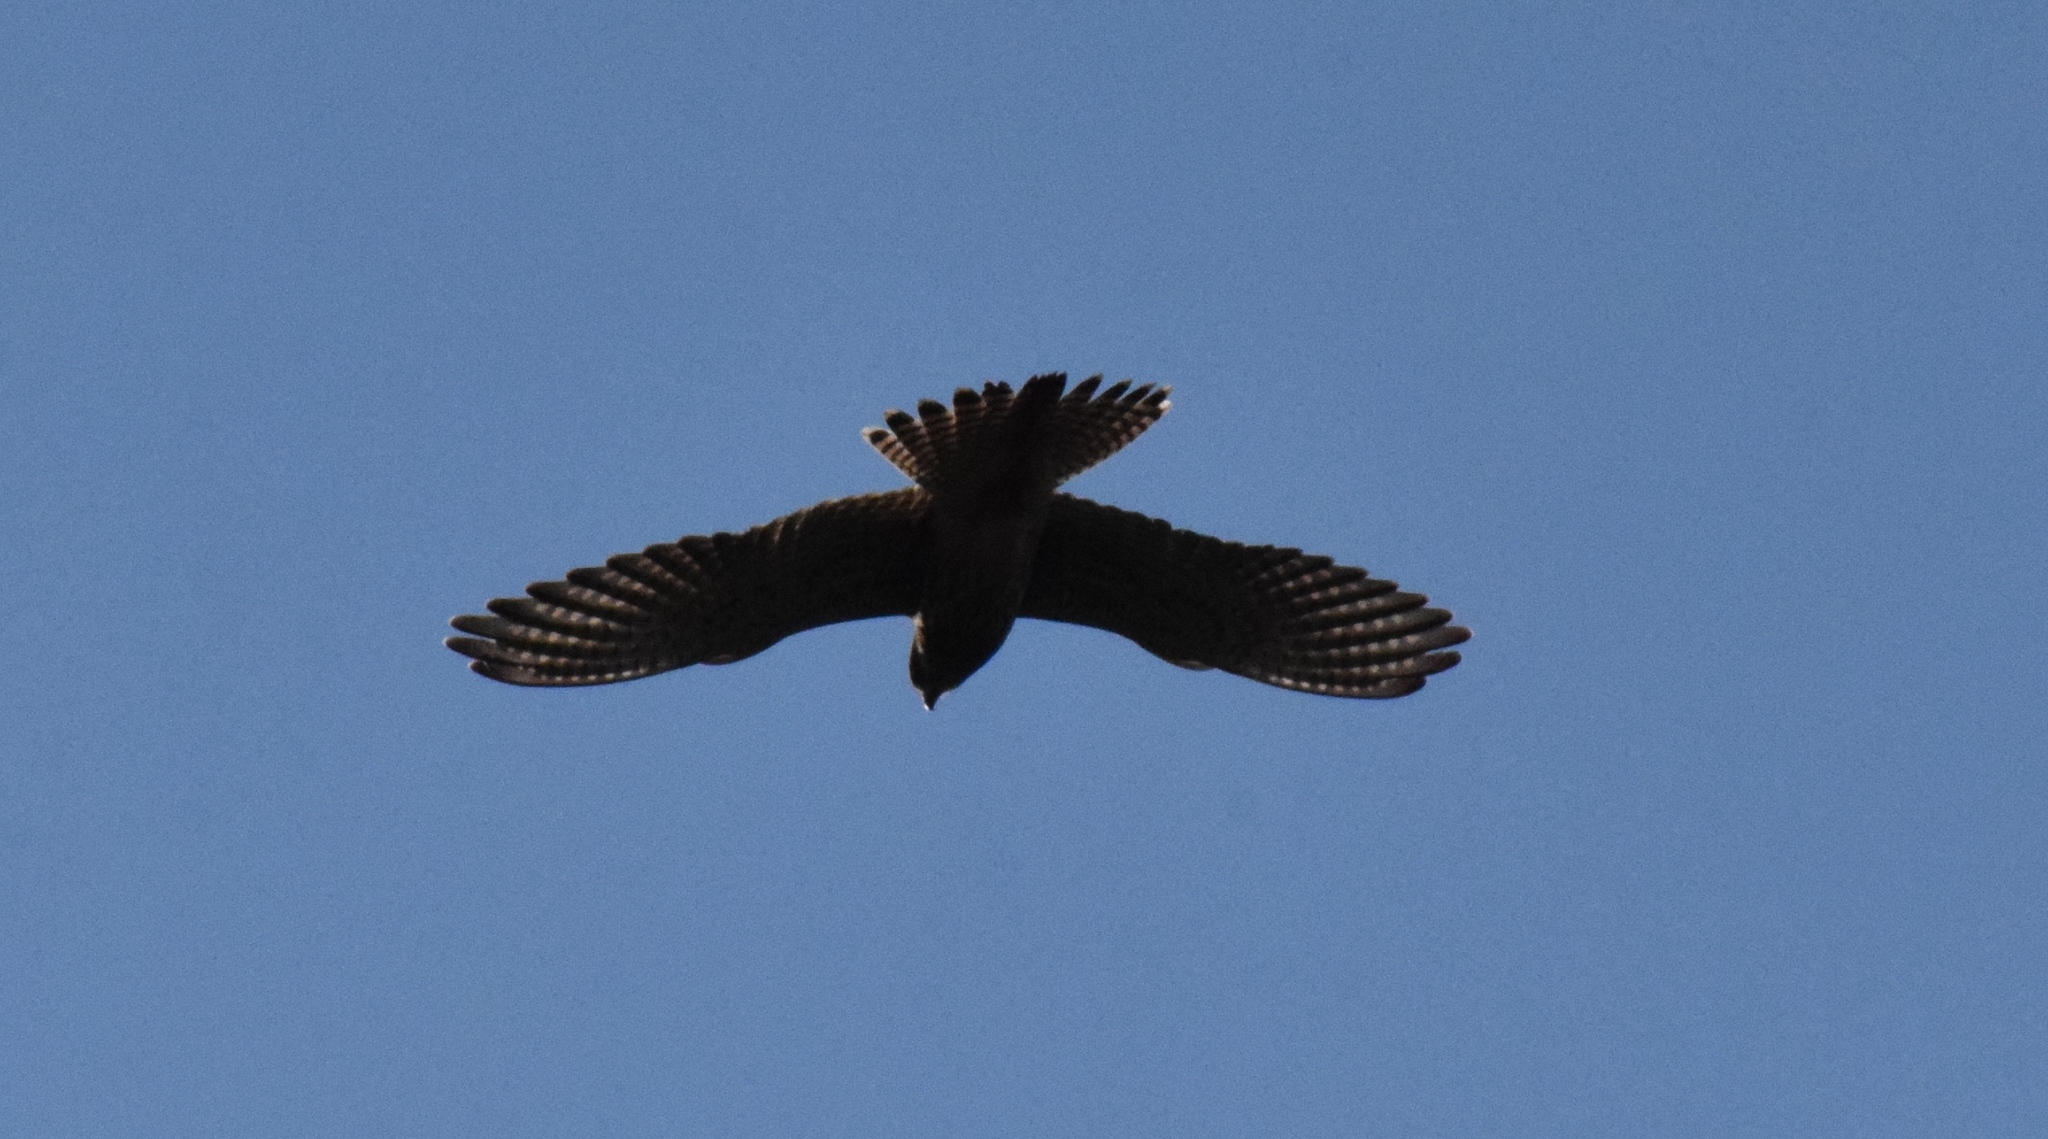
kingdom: Animalia
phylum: Chordata
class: Aves
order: Falconiformes
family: Falconidae
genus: Falco
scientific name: Falco tinnunculus
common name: Common kestrel
